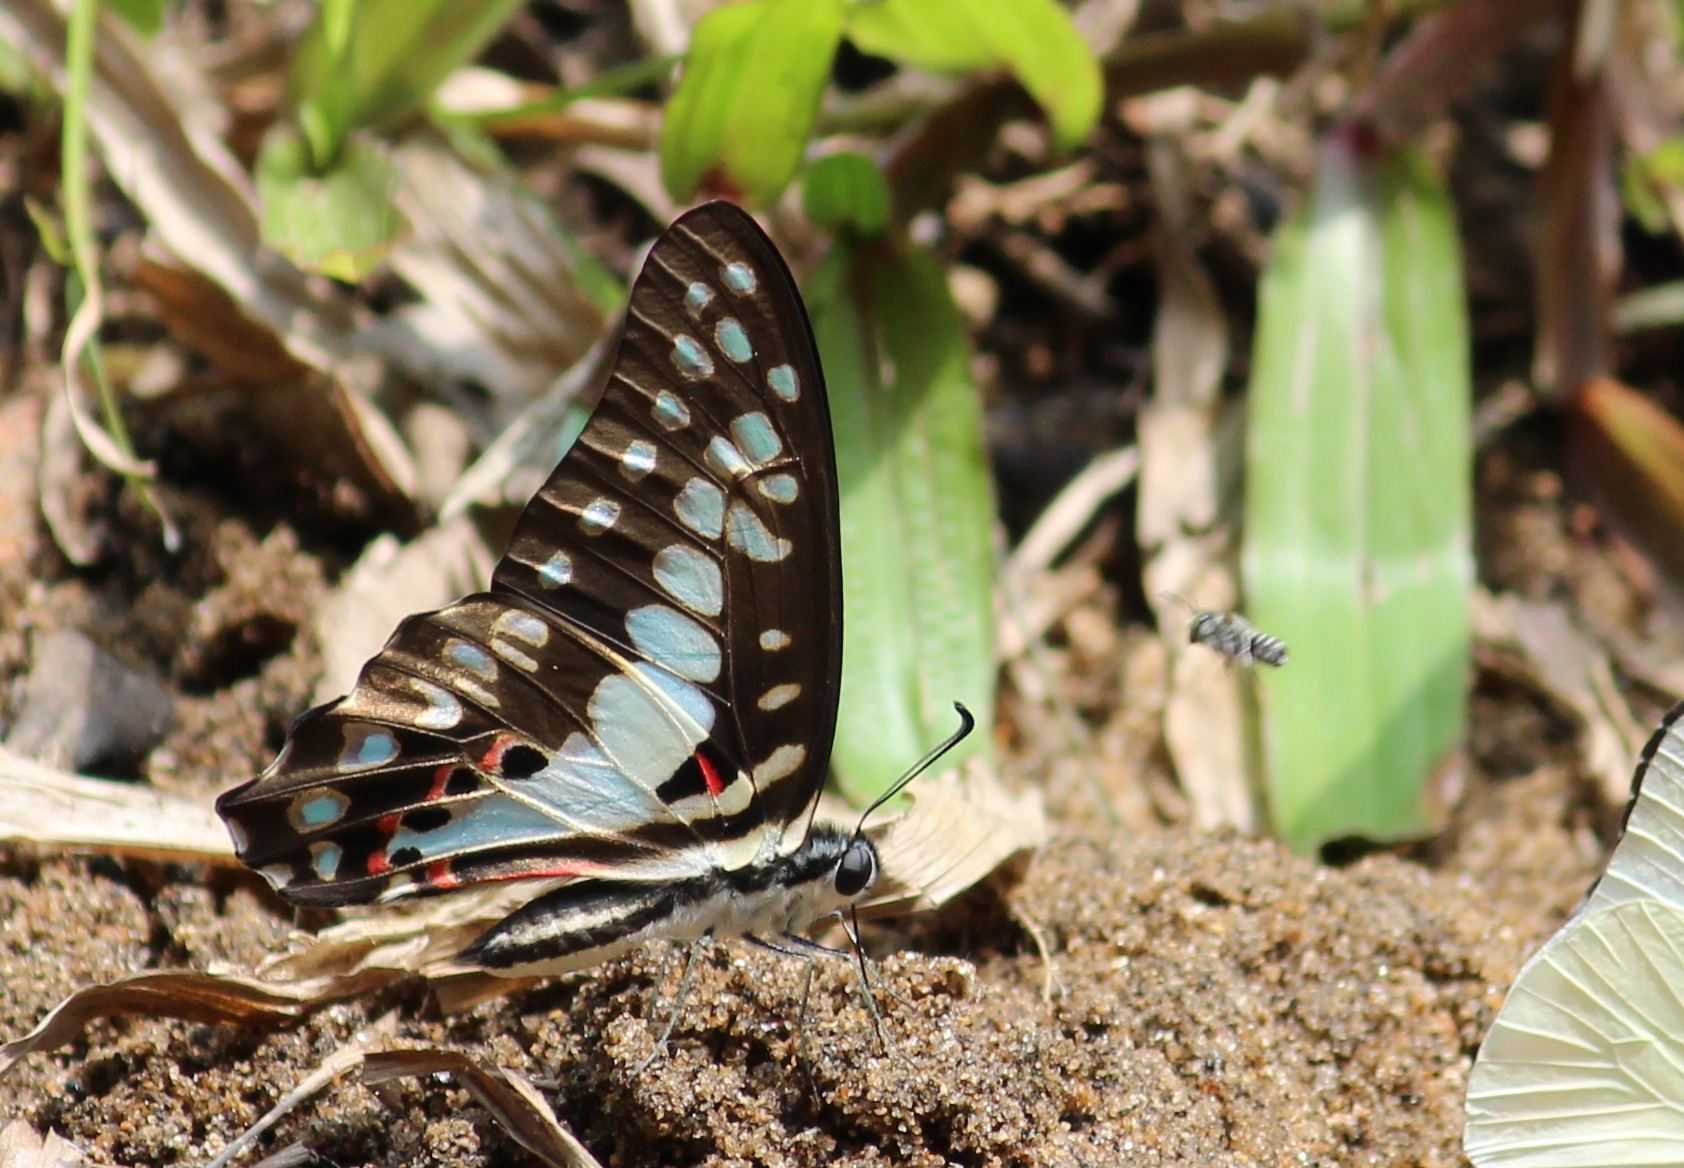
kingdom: Animalia
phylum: Arthropoda
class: Insecta
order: Lepidoptera
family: Papilionidae
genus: Graphium
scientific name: Graphium doson
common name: Common jay
